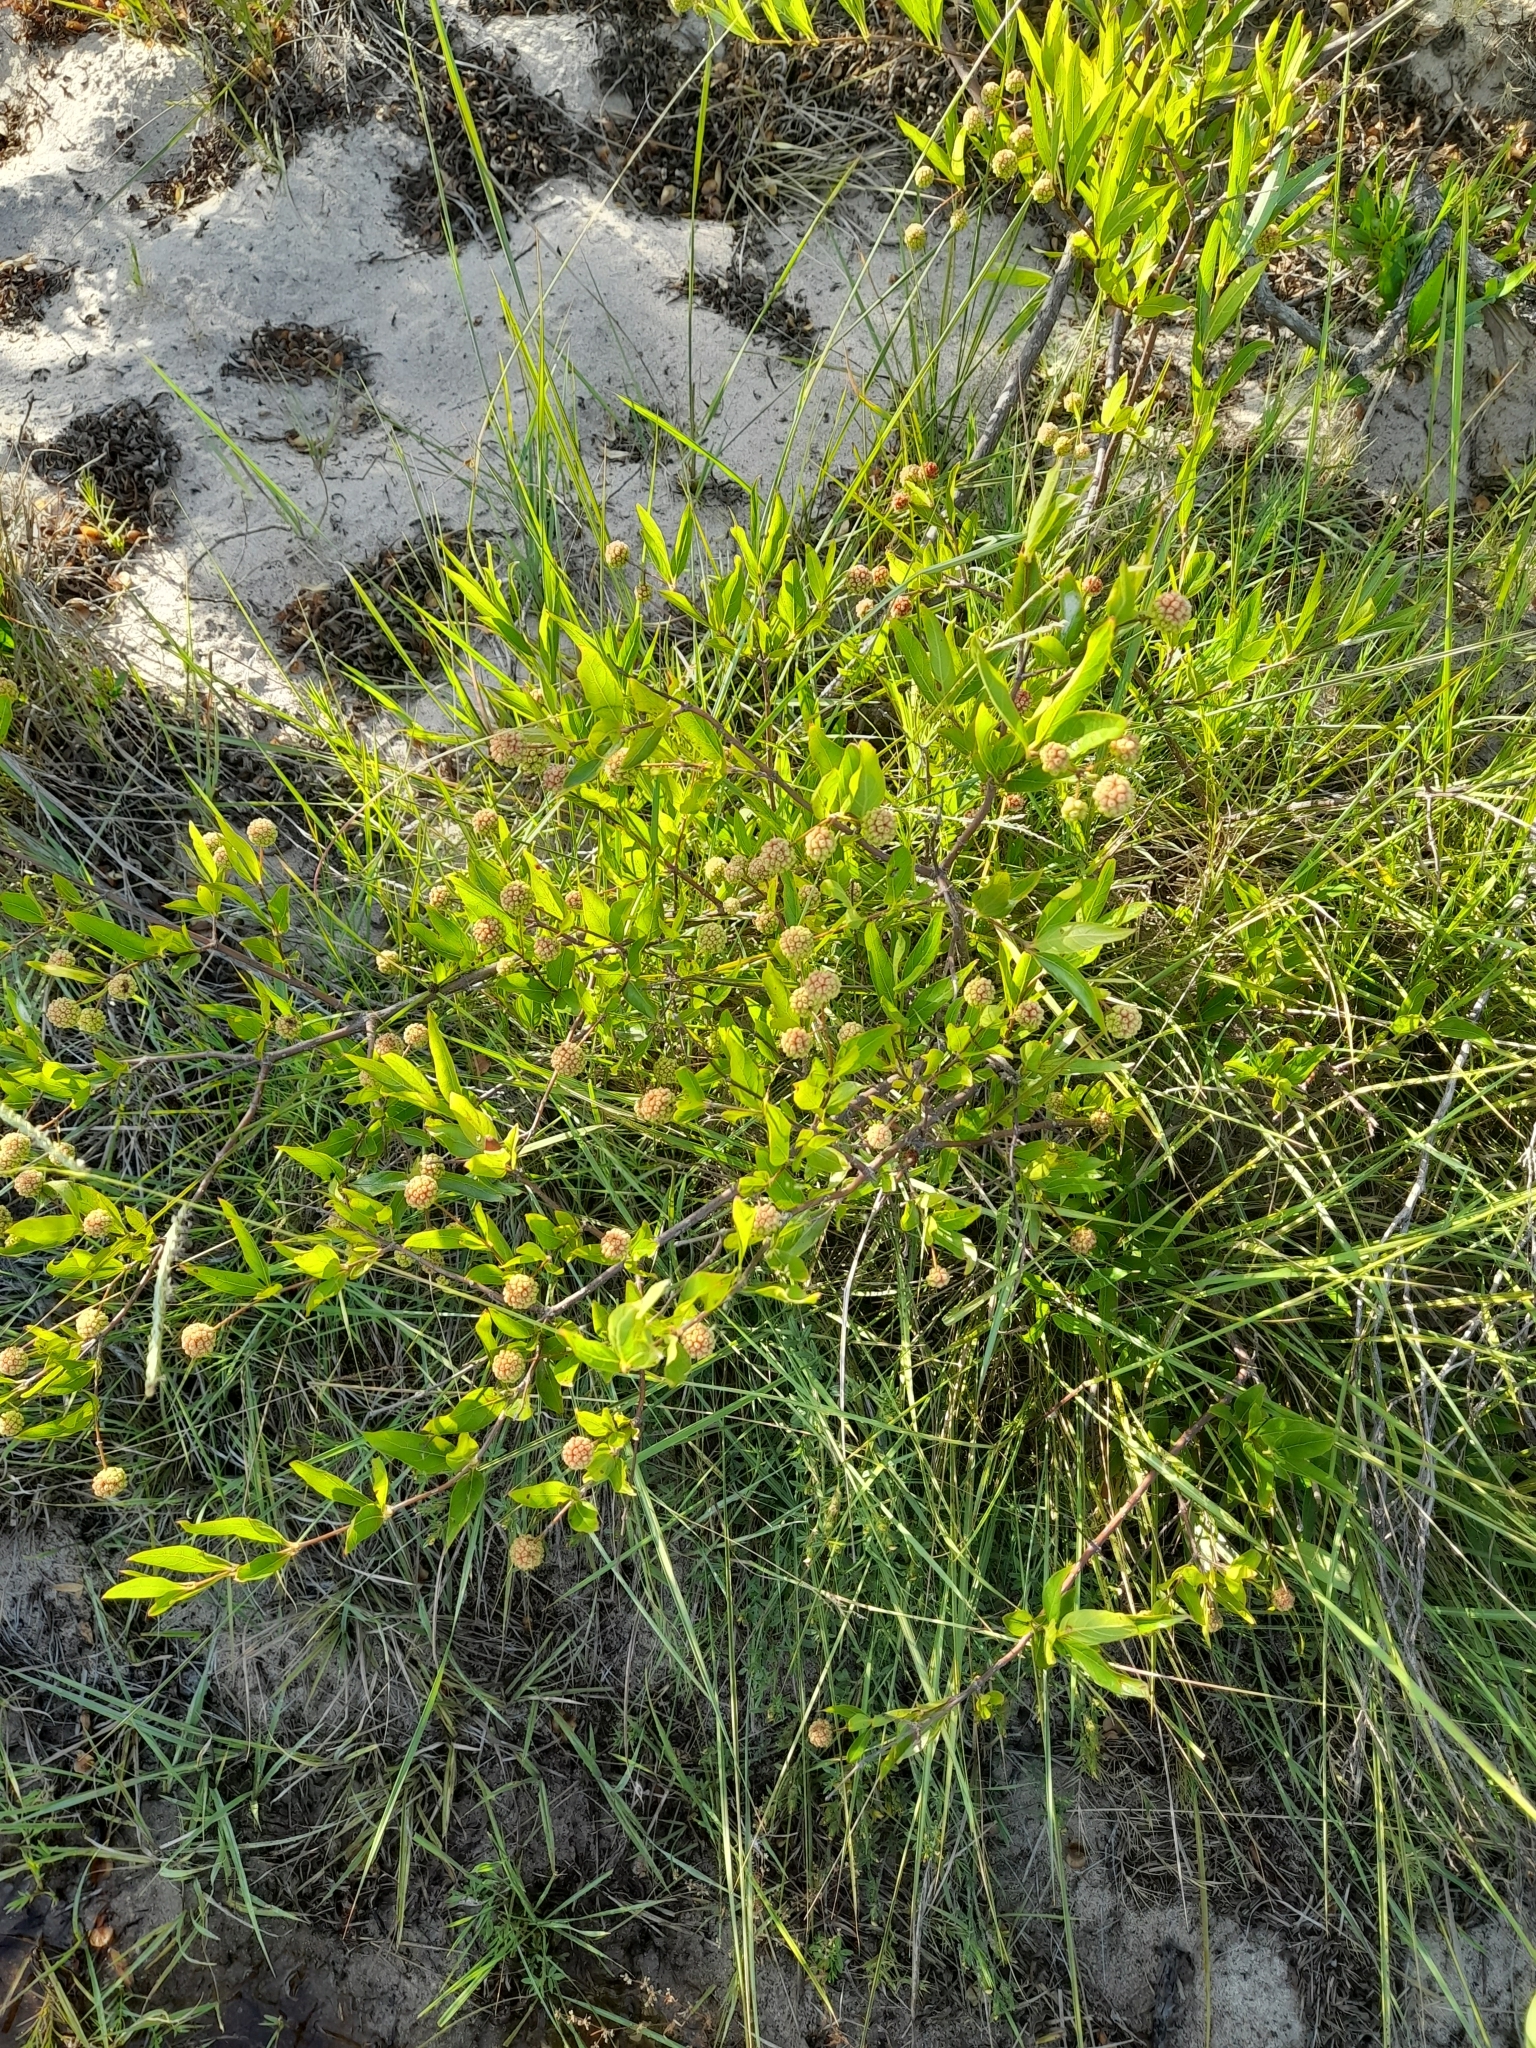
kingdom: Plantae
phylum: Tracheophyta
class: Magnoliopsida
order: Gentianales
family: Rubiaceae
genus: Cephalanthus
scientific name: Cephalanthus glabratus
